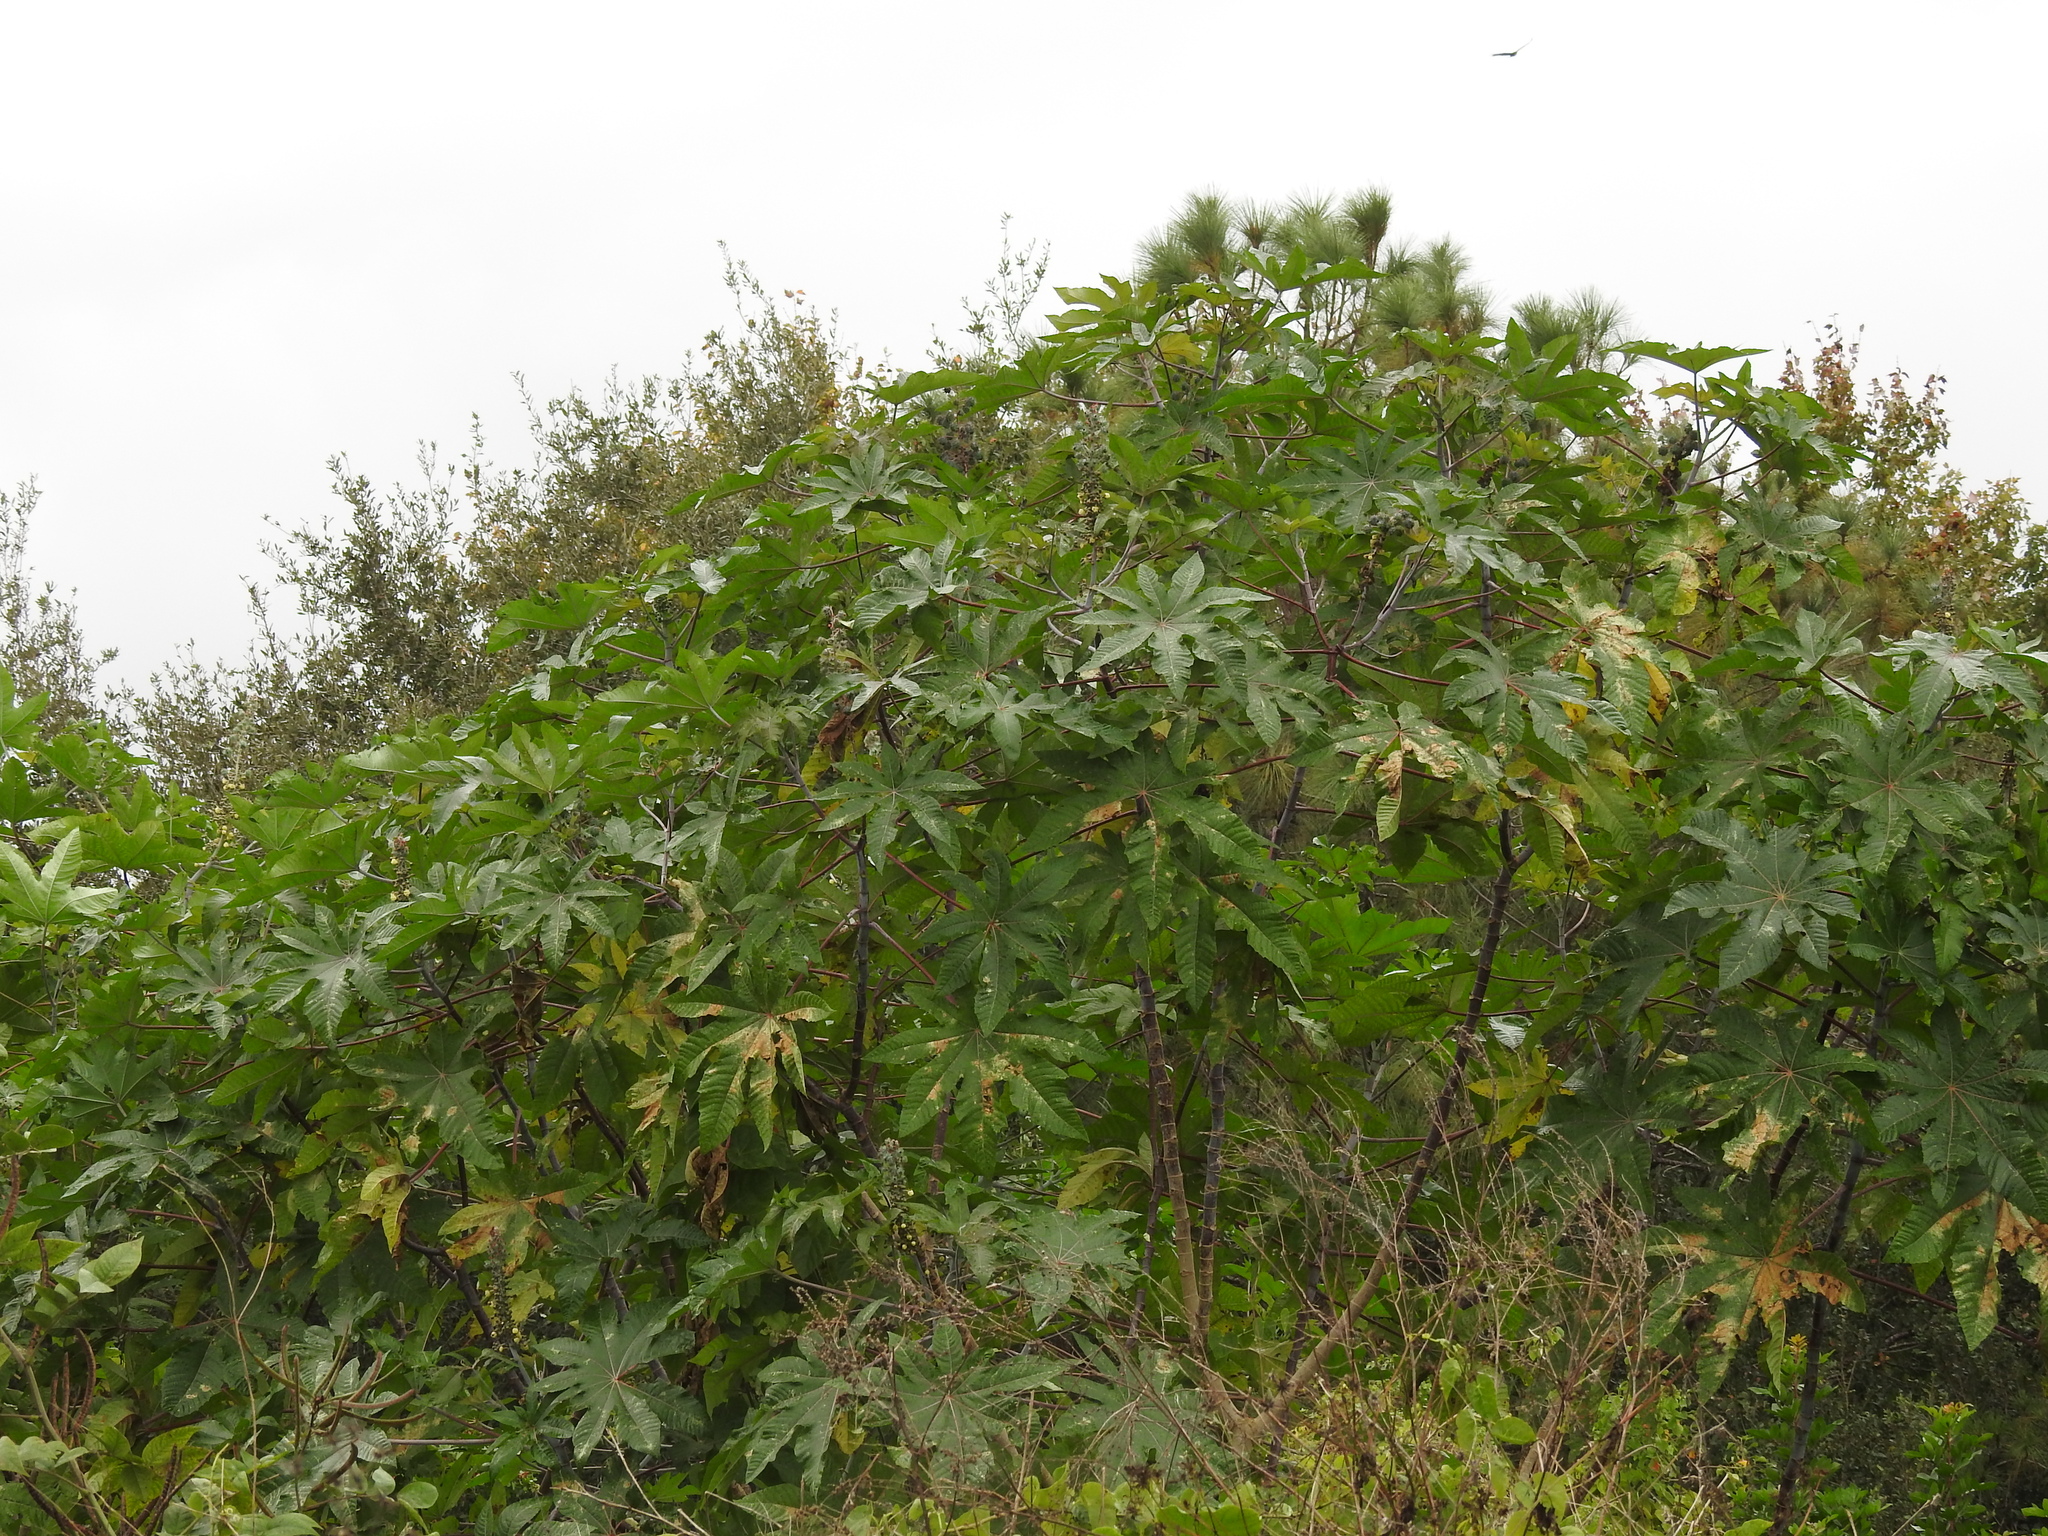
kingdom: Plantae
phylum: Tracheophyta
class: Magnoliopsida
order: Malpighiales
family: Euphorbiaceae
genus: Ricinus
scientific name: Ricinus communis
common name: Castor-oil-plant
